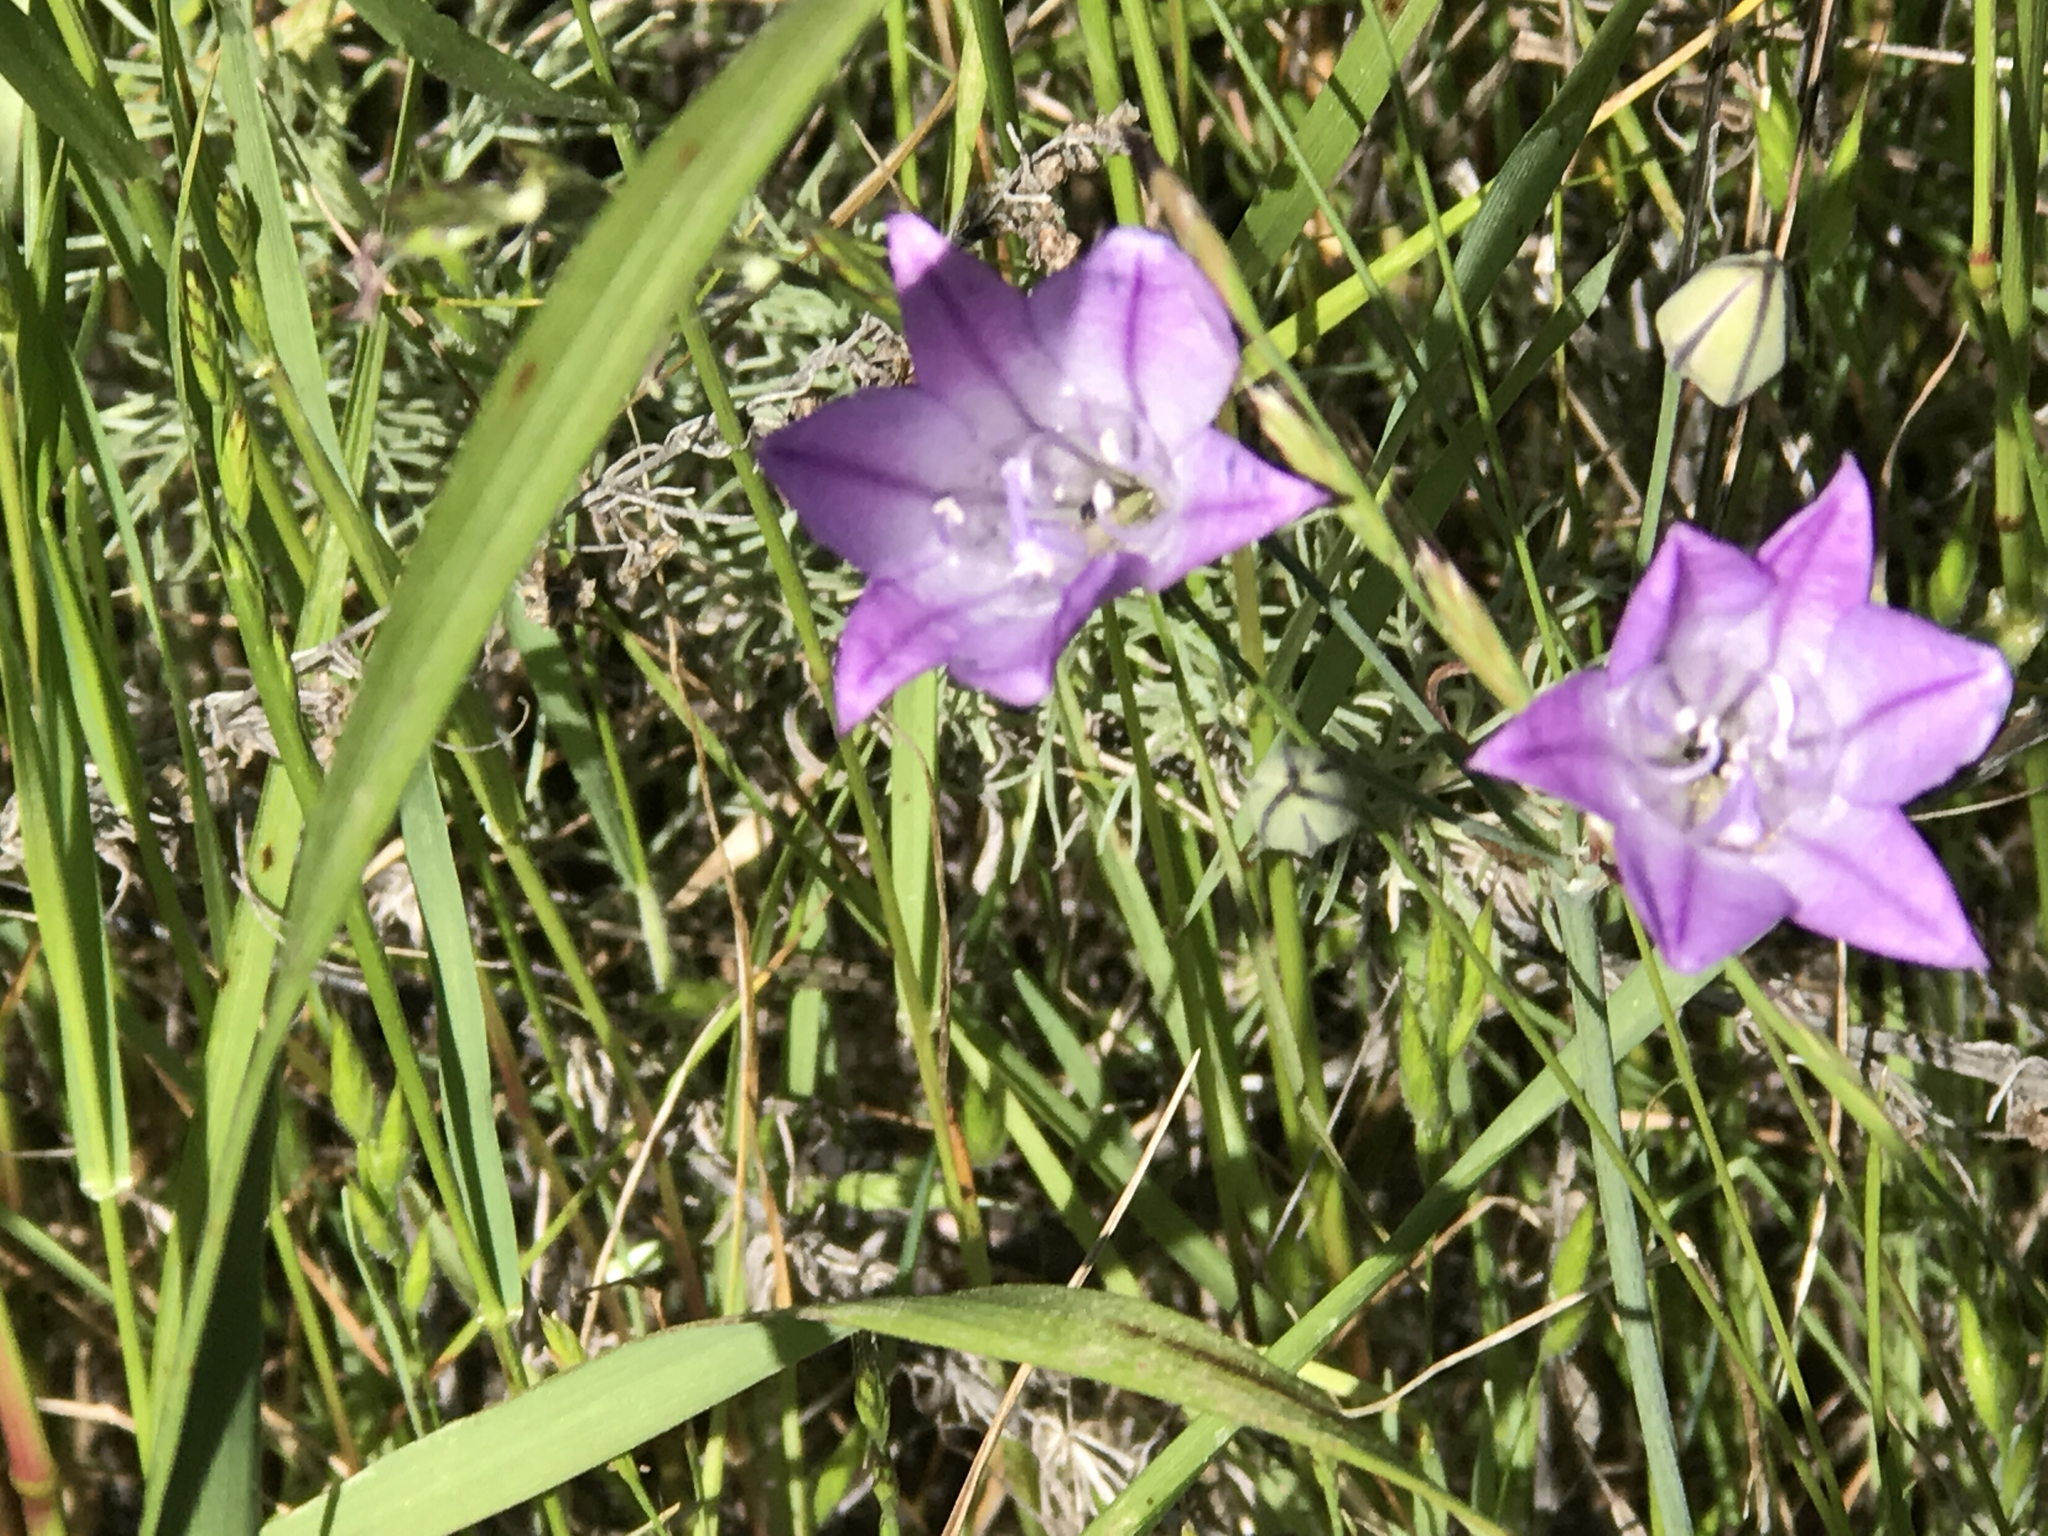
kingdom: Plantae
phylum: Tracheophyta
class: Liliopsida
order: Asparagales
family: Asparagaceae
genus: Triteleia
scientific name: Triteleia laxa
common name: Triplet-lily
